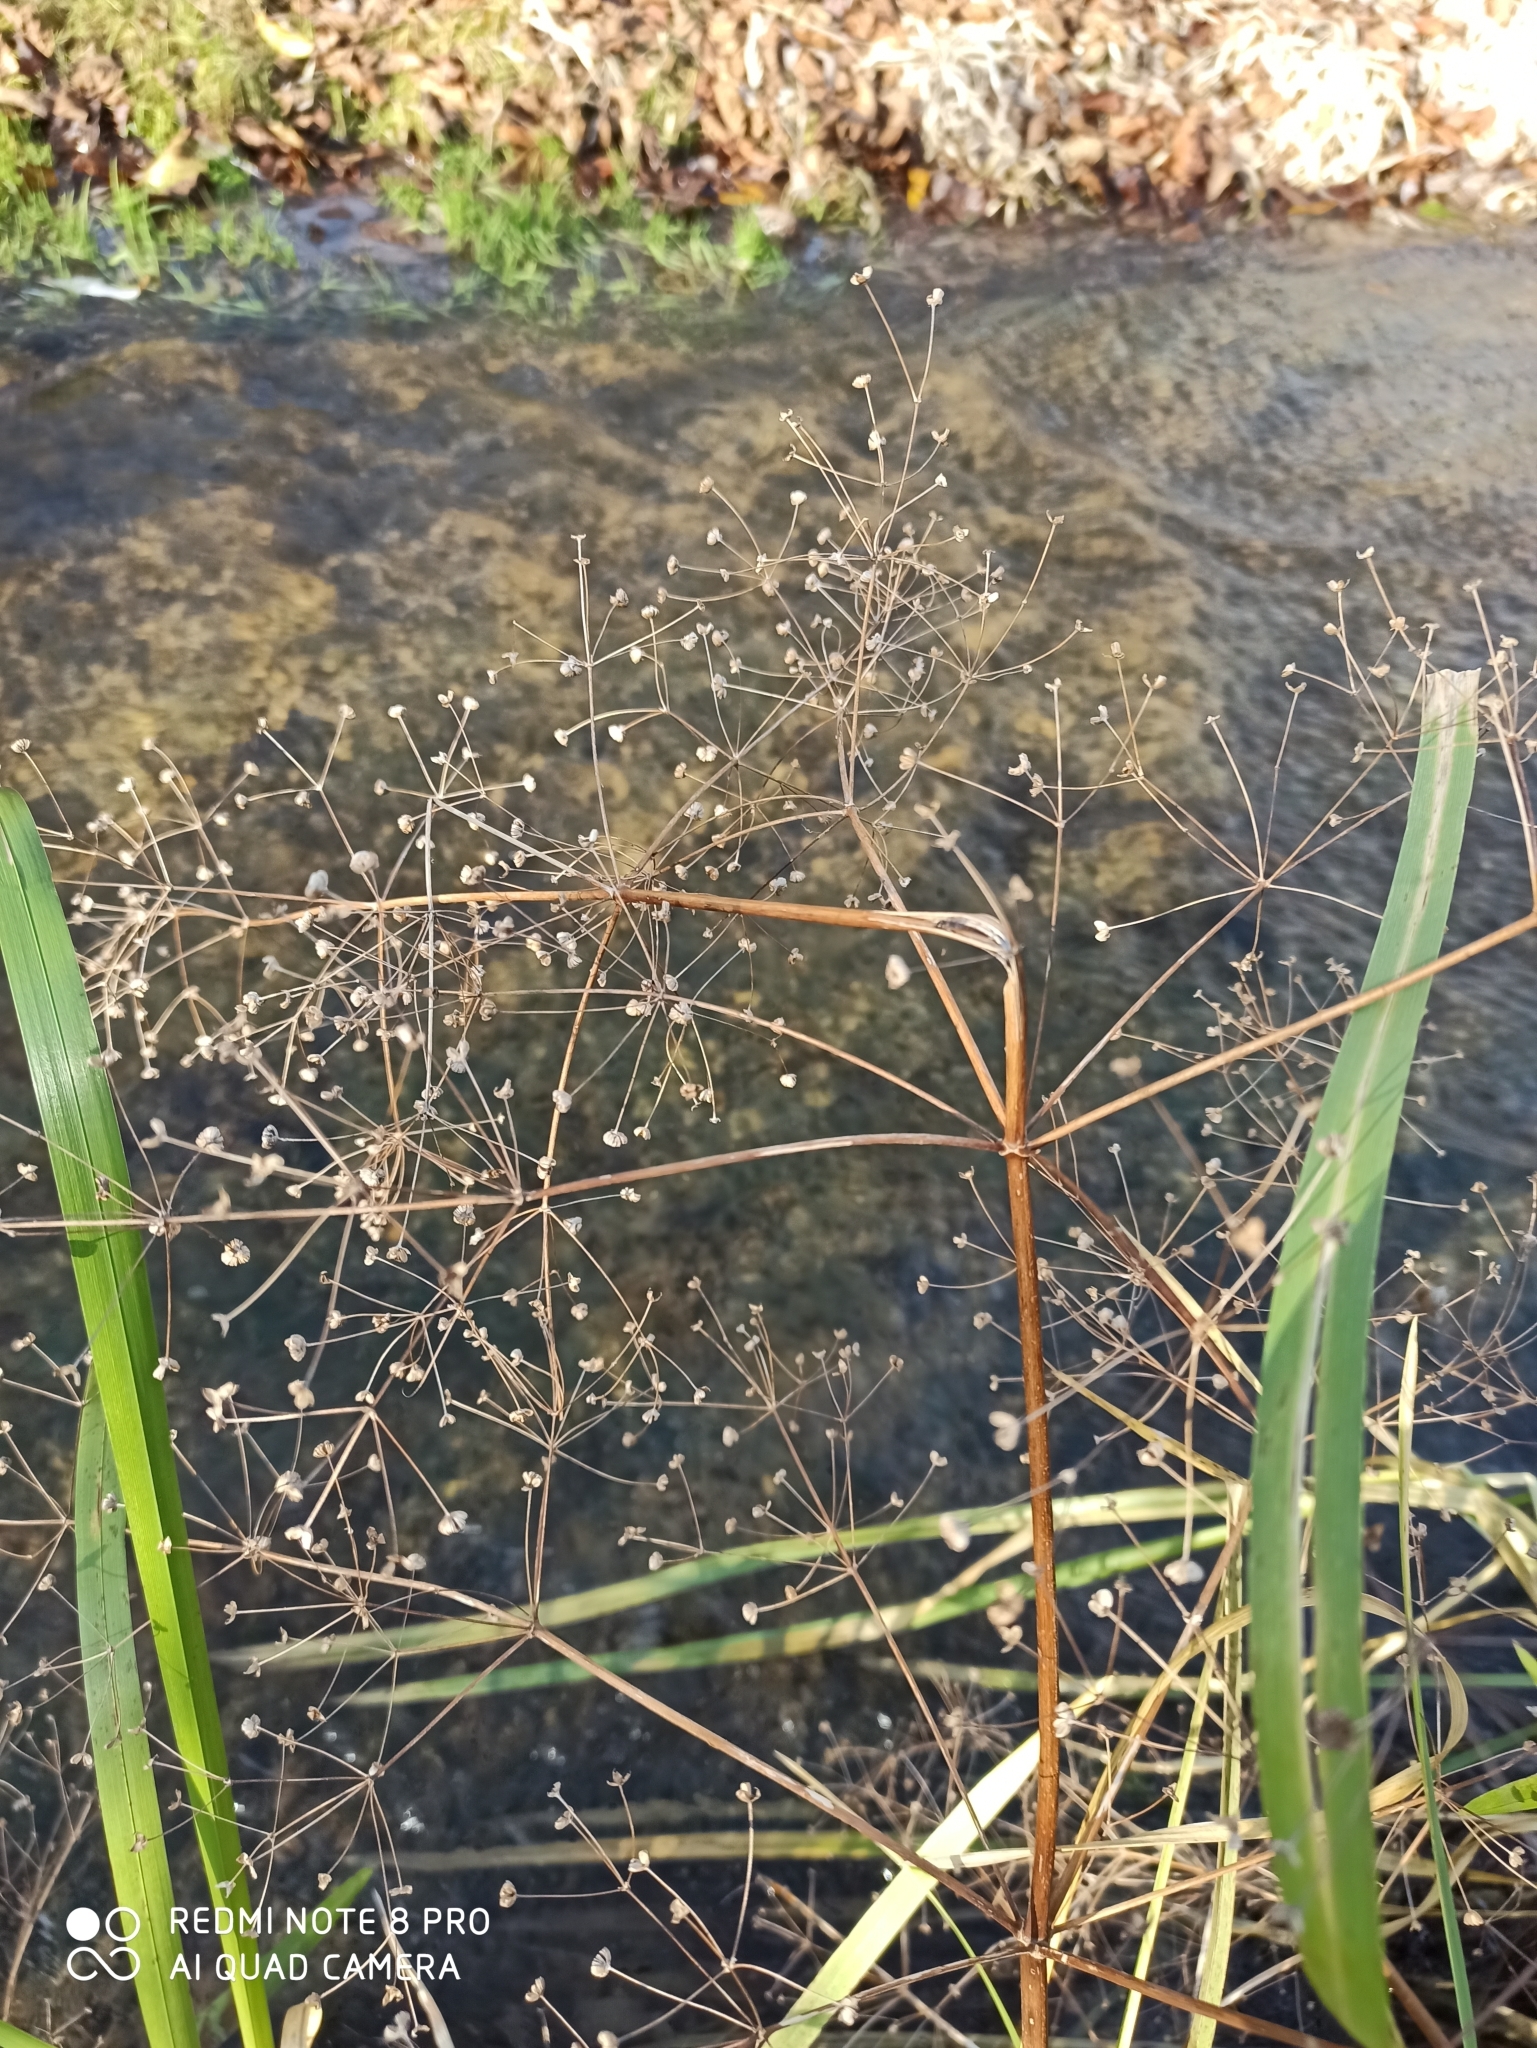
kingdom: Plantae
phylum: Tracheophyta
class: Liliopsida
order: Alismatales
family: Alismataceae
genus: Alisma
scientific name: Alisma plantago-aquatica
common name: Water-plantain
